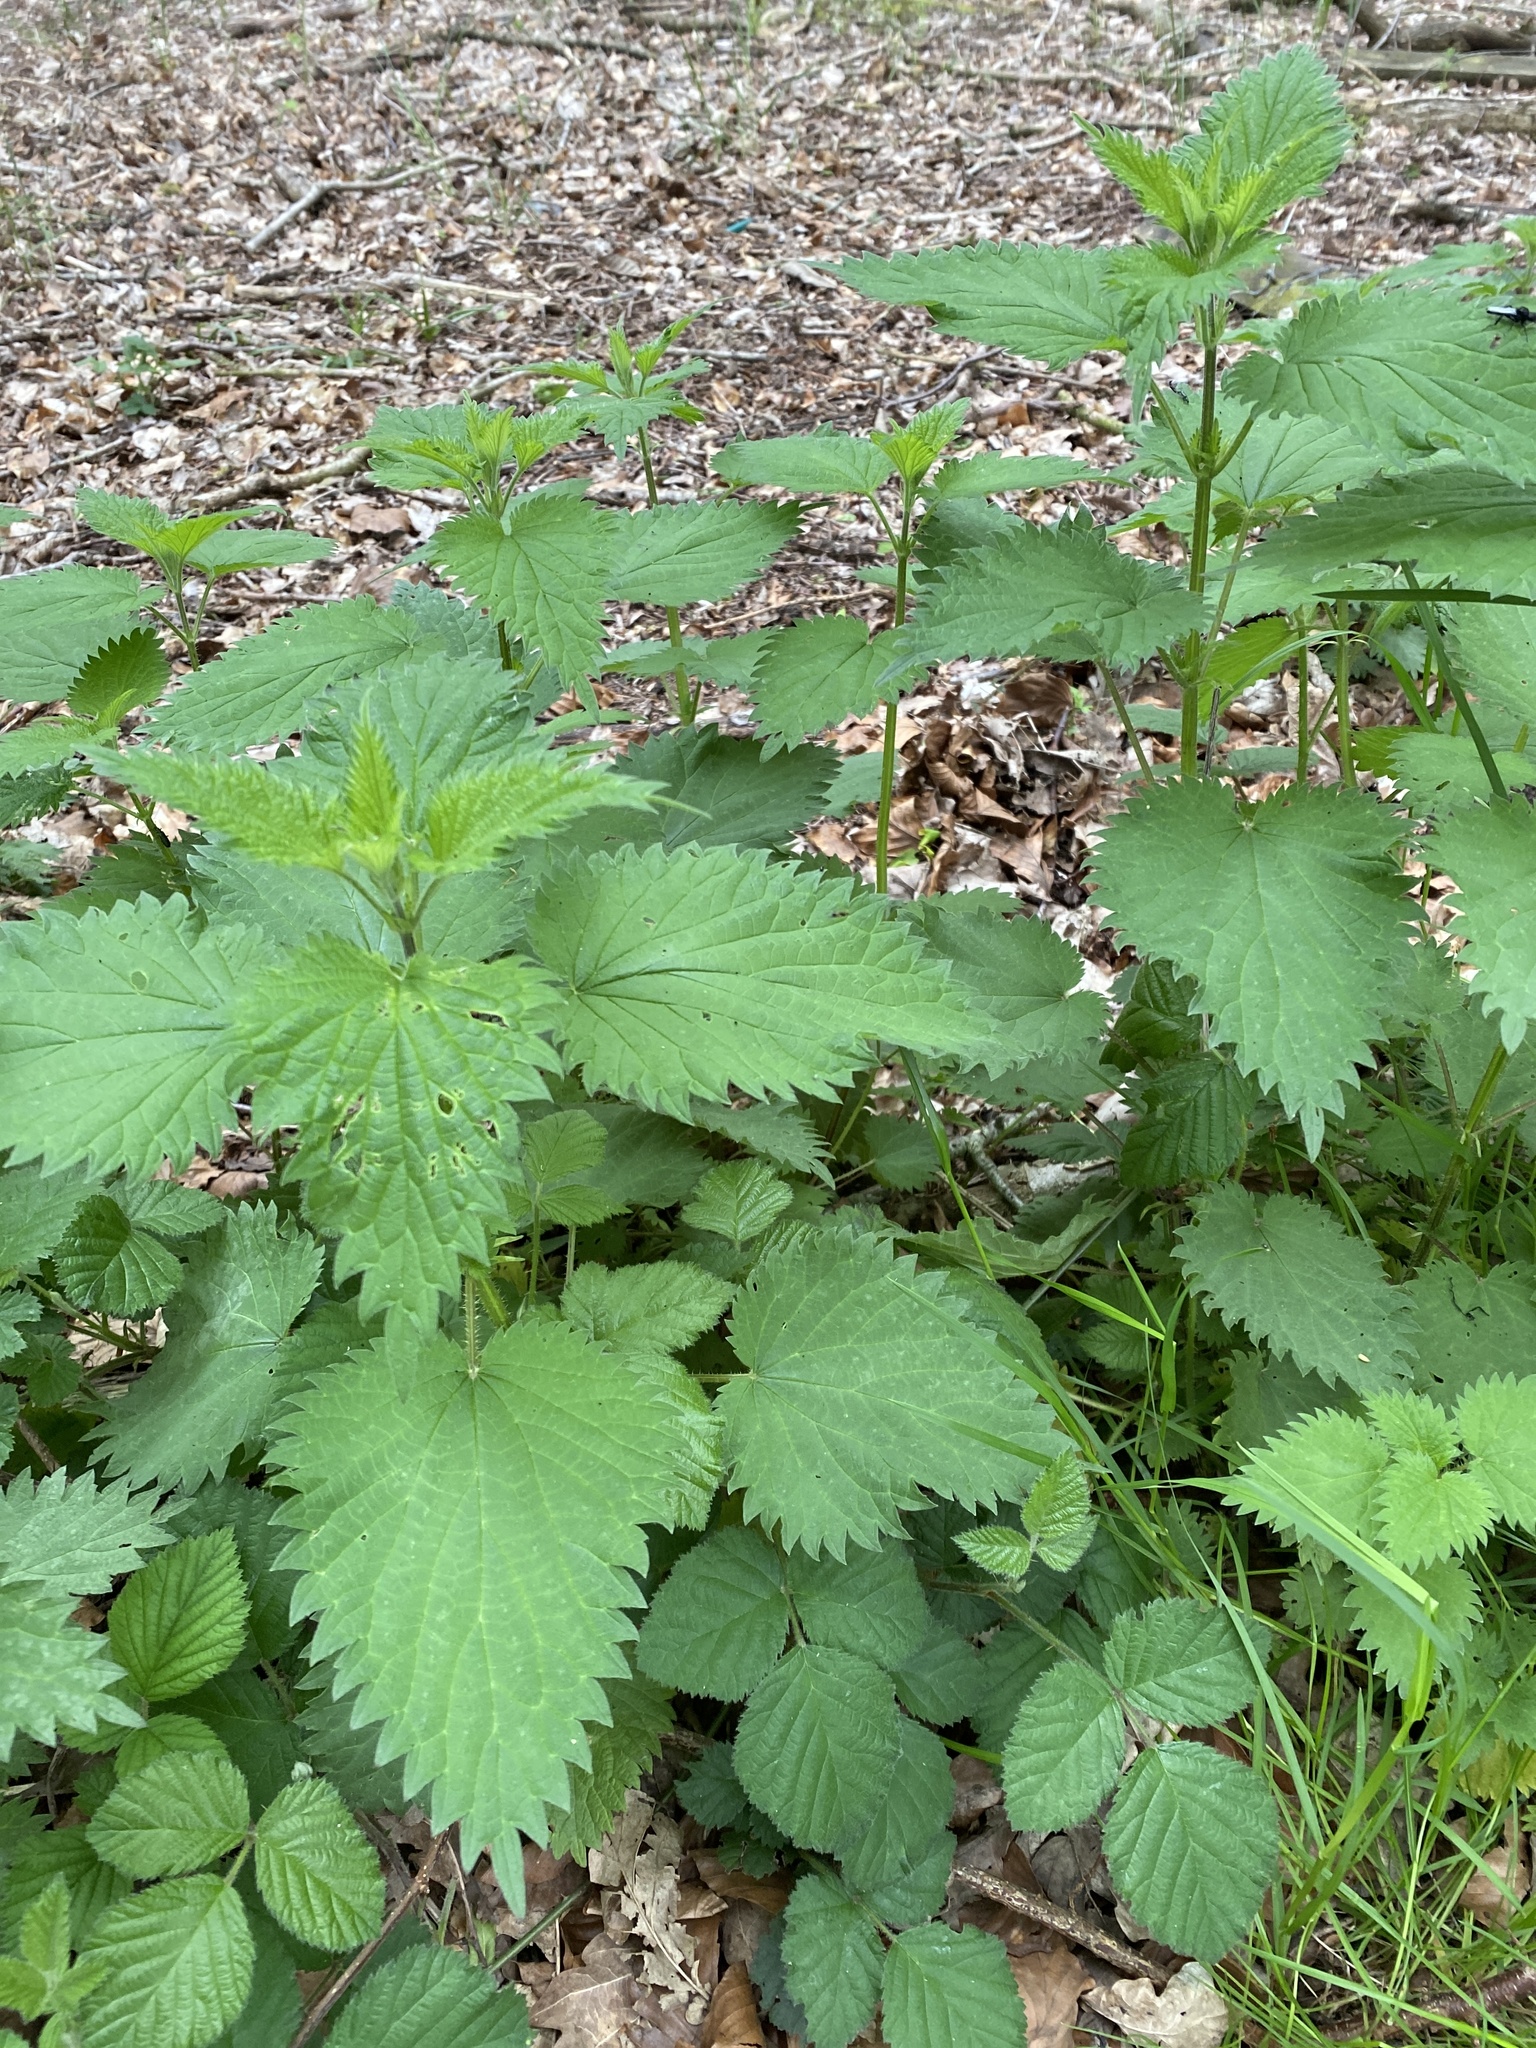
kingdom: Plantae
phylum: Tracheophyta
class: Magnoliopsida
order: Rosales
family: Urticaceae
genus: Urtica
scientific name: Urtica dioica
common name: Common nettle
